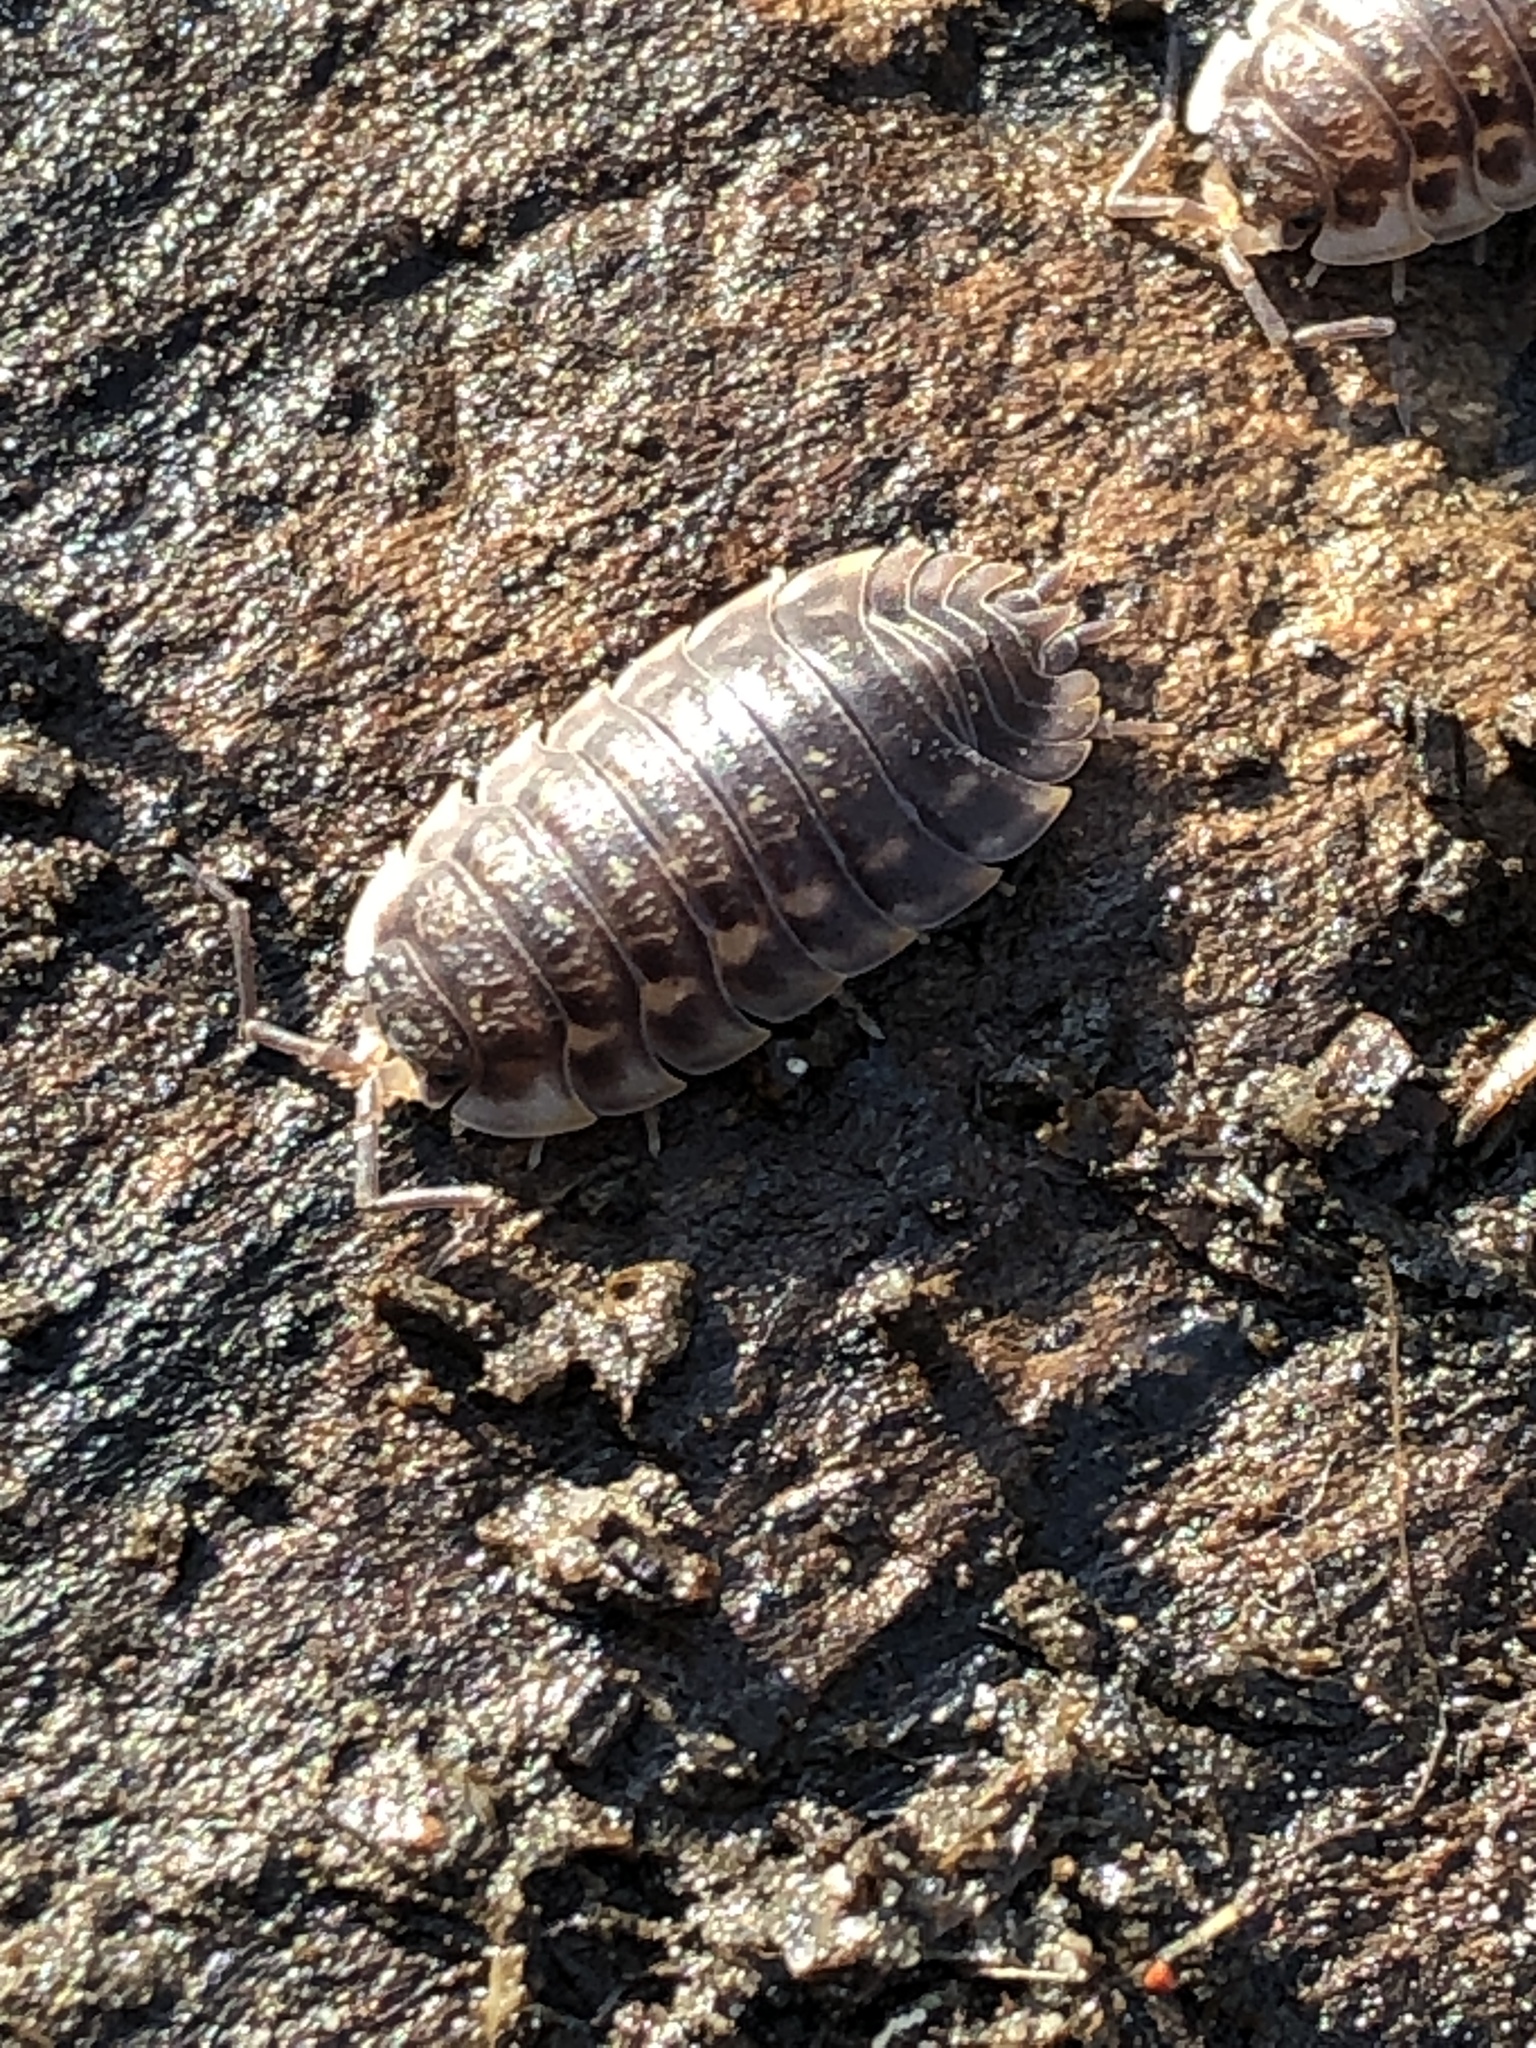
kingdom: Animalia
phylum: Arthropoda
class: Malacostraca
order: Isopoda
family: Oniscidae
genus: Oniscus
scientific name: Oniscus asellus
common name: Common shiny woodlouse
